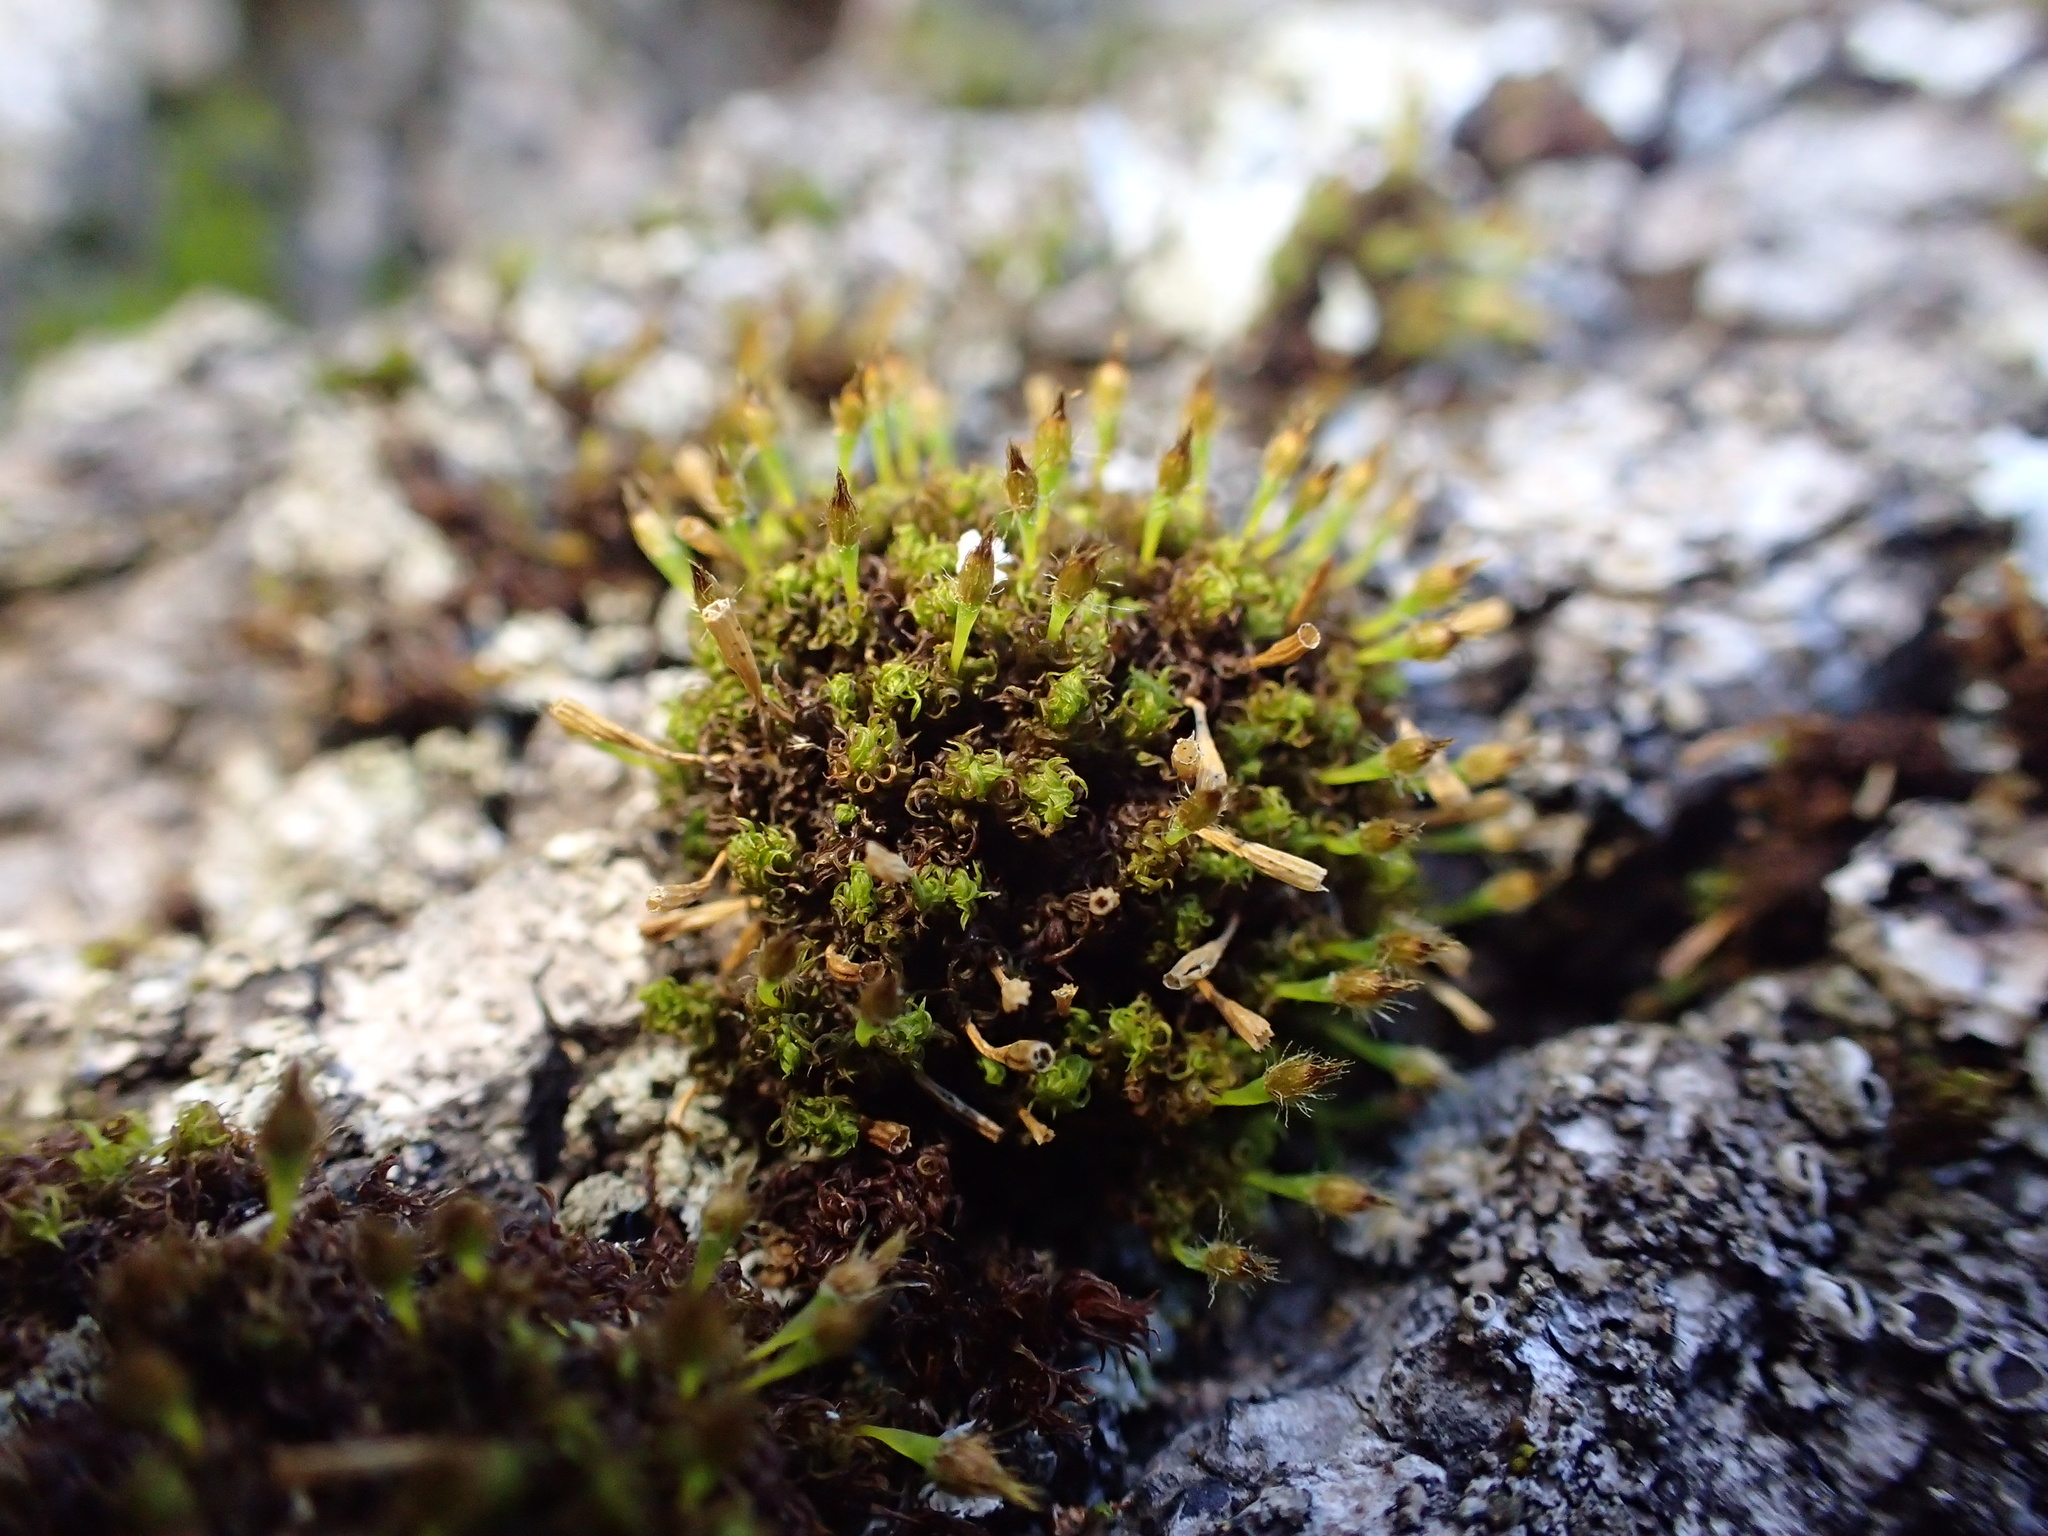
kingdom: Plantae
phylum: Bryophyta
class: Bryopsida
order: Orthotrichales
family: Orthotrichaceae
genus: Ulota
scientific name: Ulota crispa
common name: Crisped pincushion moss
